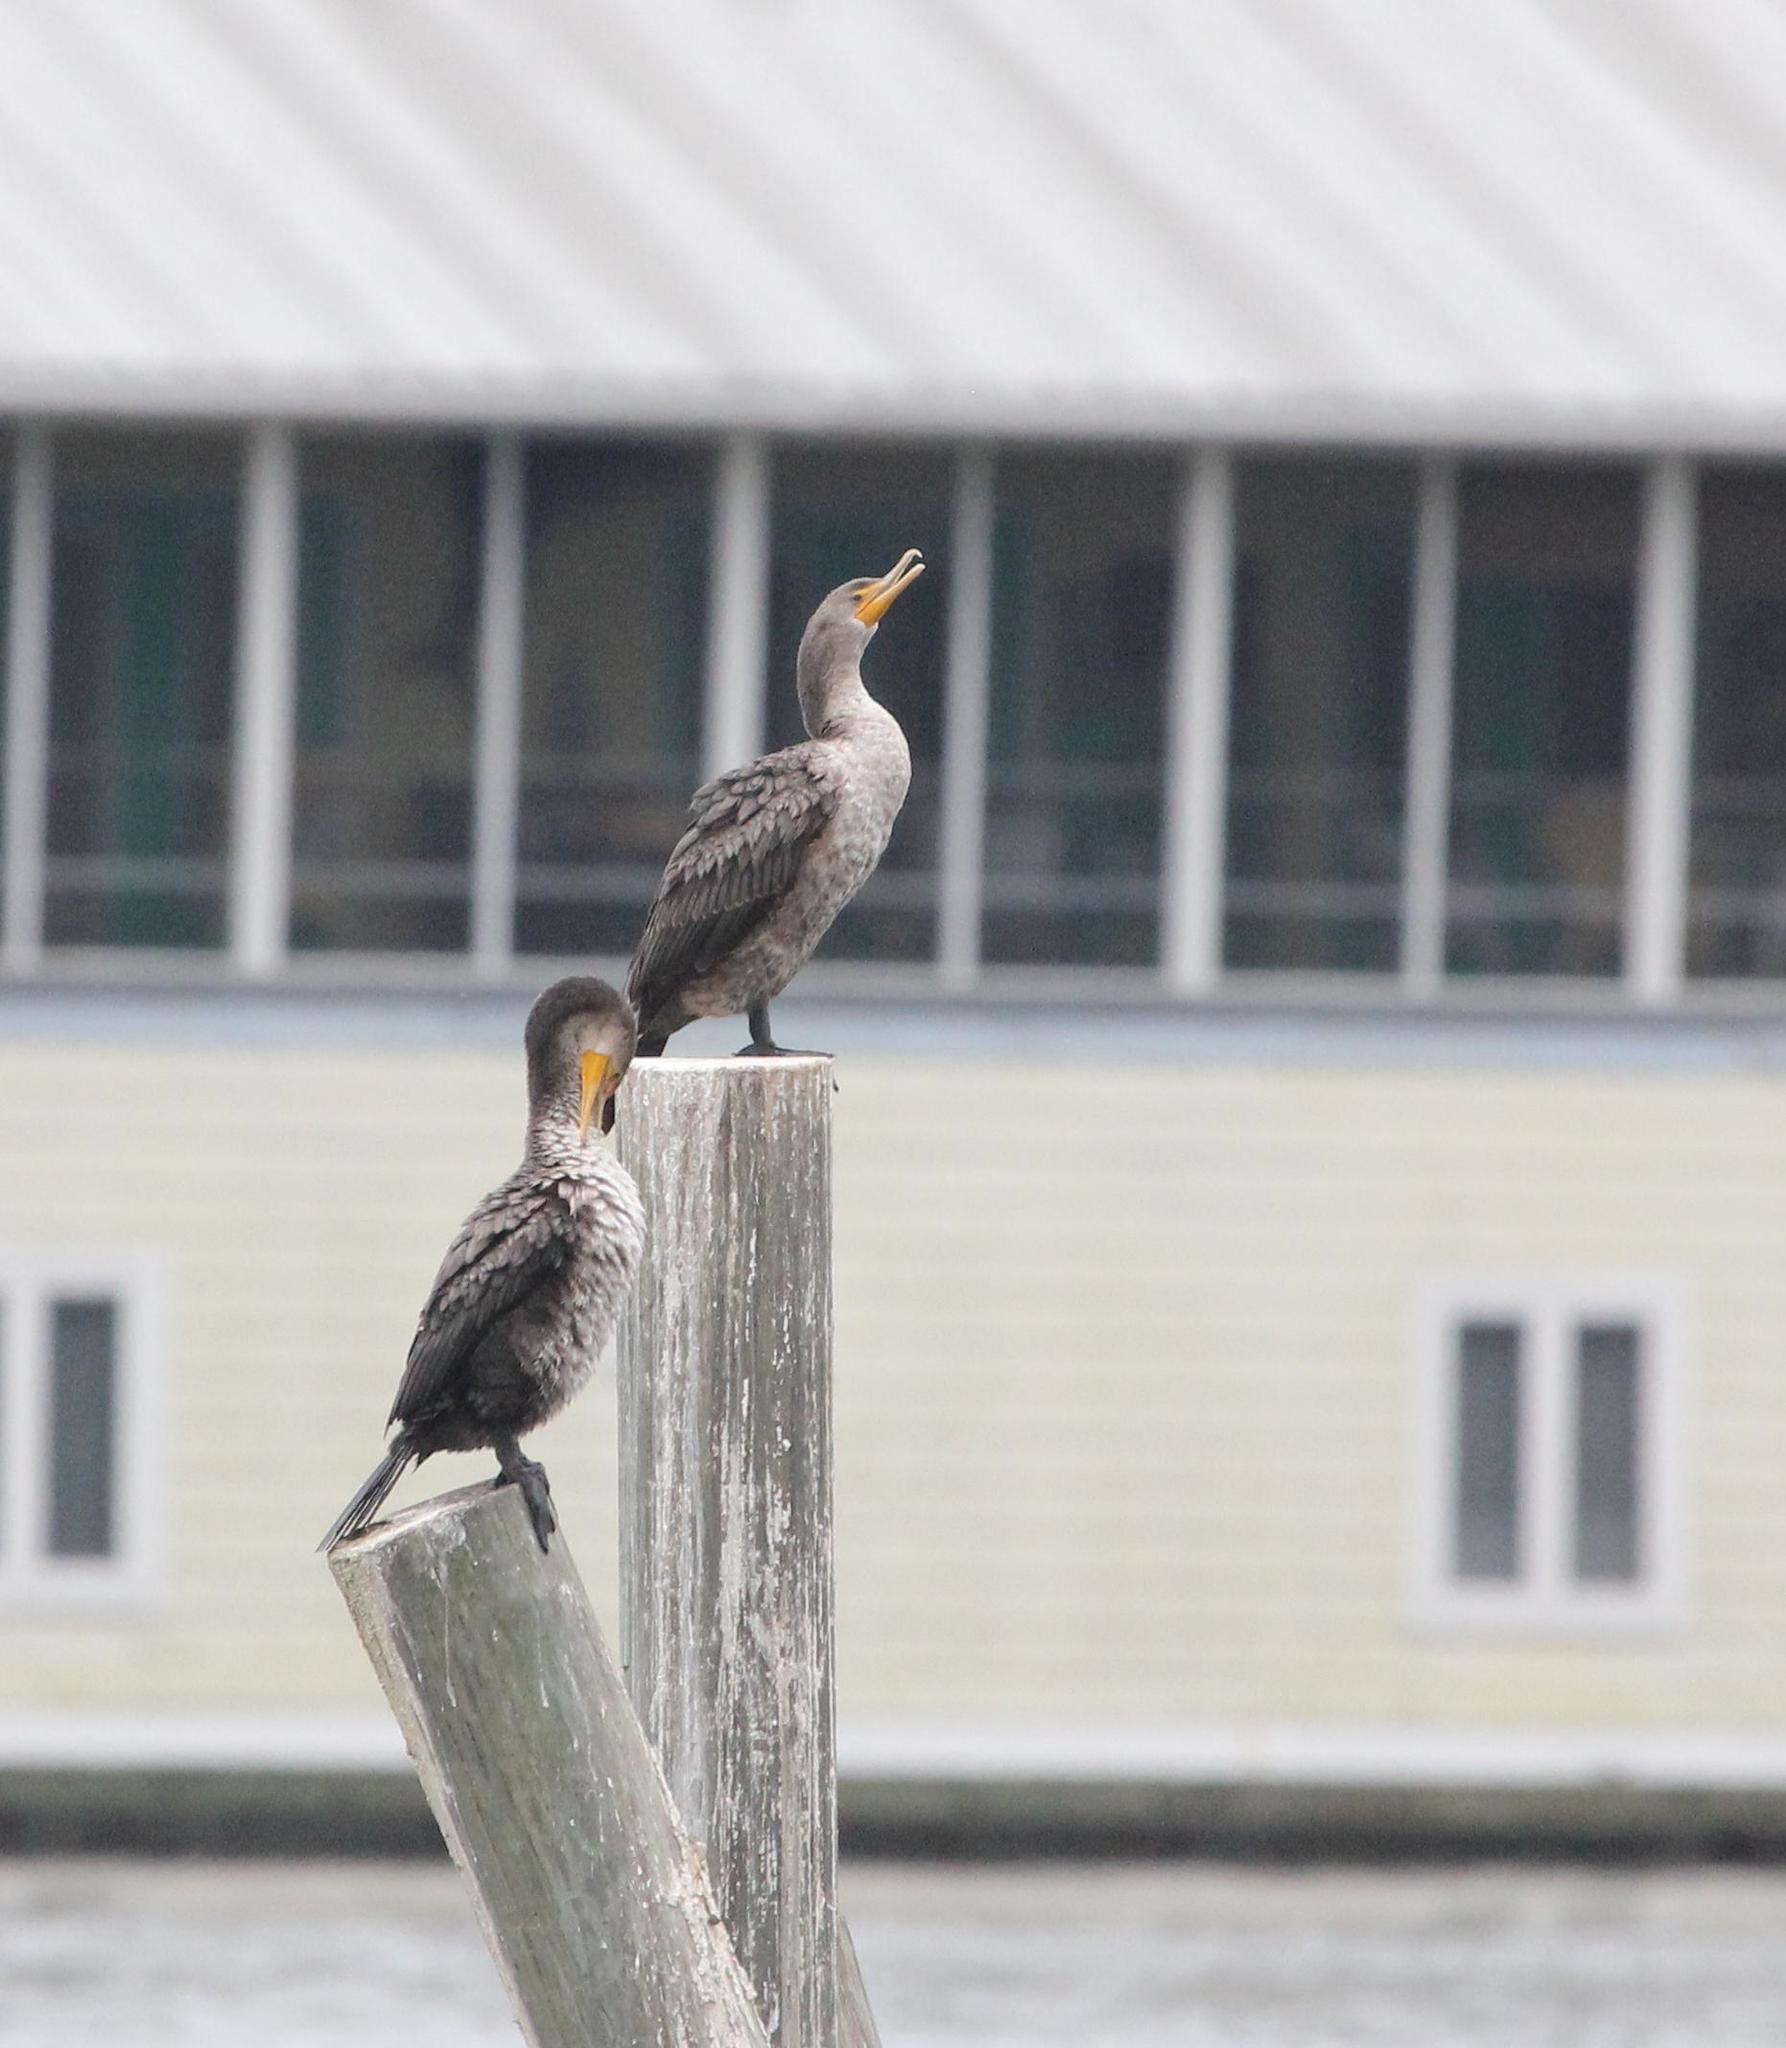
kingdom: Animalia
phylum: Chordata
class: Aves
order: Suliformes
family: Phalacrocoracidae
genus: Phalacrocorax
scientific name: Phalacrocorax auritus
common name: Double-crested cormorant
